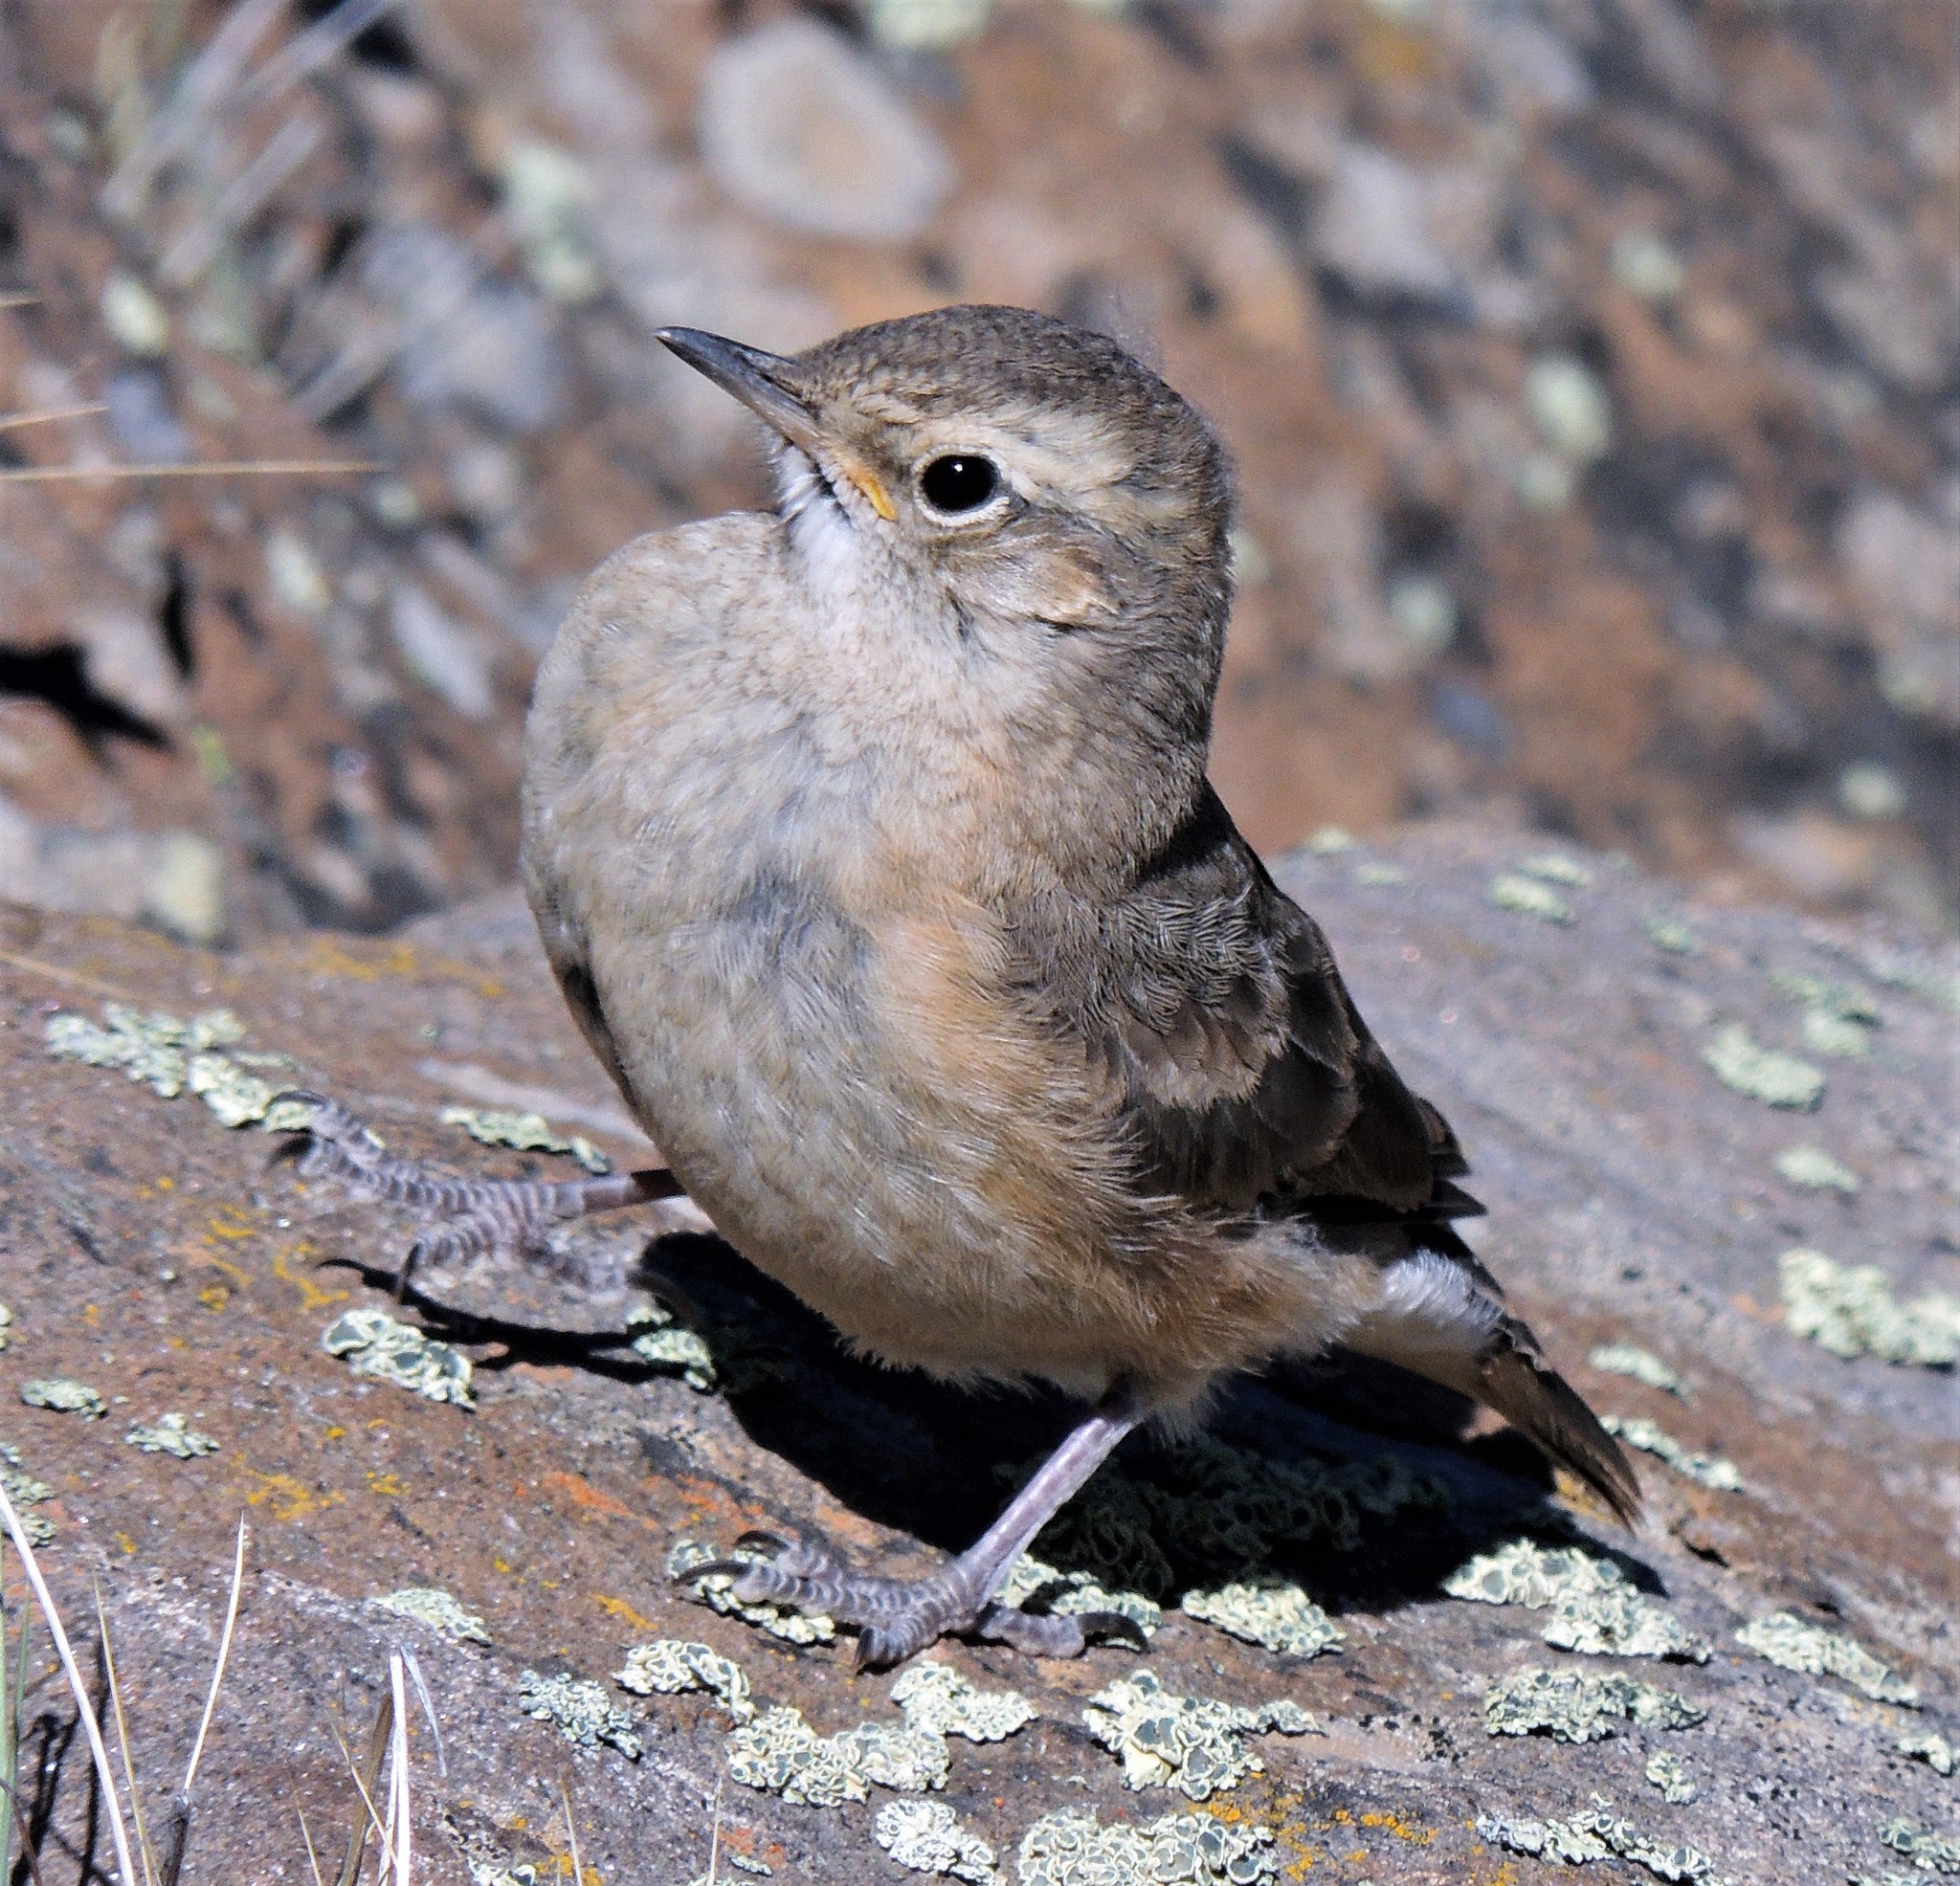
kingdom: Animalia
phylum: Chordata
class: Aves
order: Passeriformes
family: Furnariidae
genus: Geositta
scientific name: Geositta antarctica
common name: Short-billed miner
